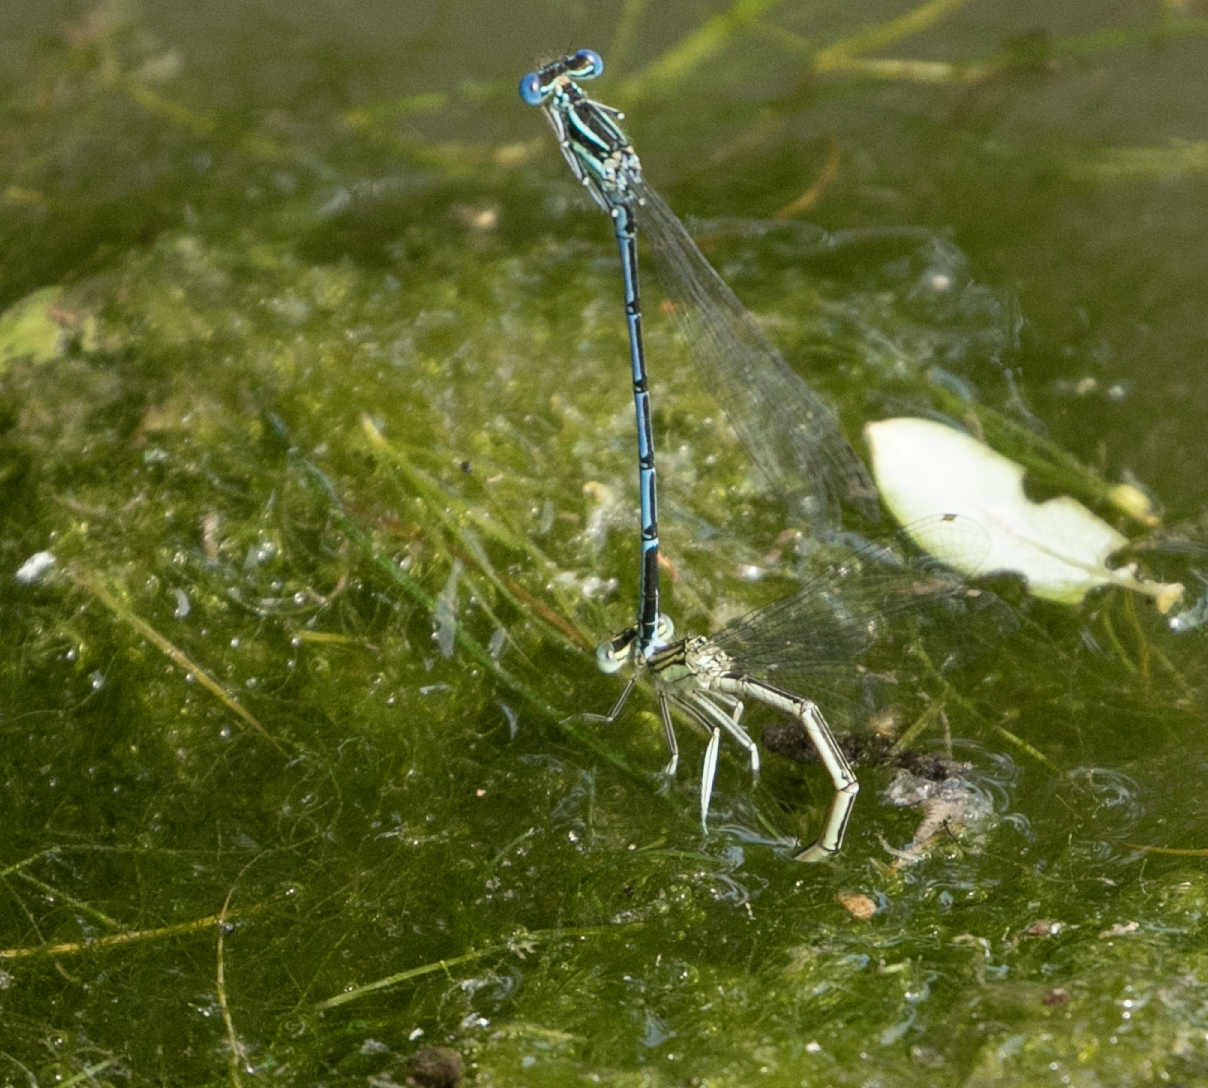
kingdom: Animalia
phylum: Arthropoda
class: Insecta
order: Odonata
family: Platycnemididae
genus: Platycnemis
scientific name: Platycnemis pennipes
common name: White-legged damselfly
